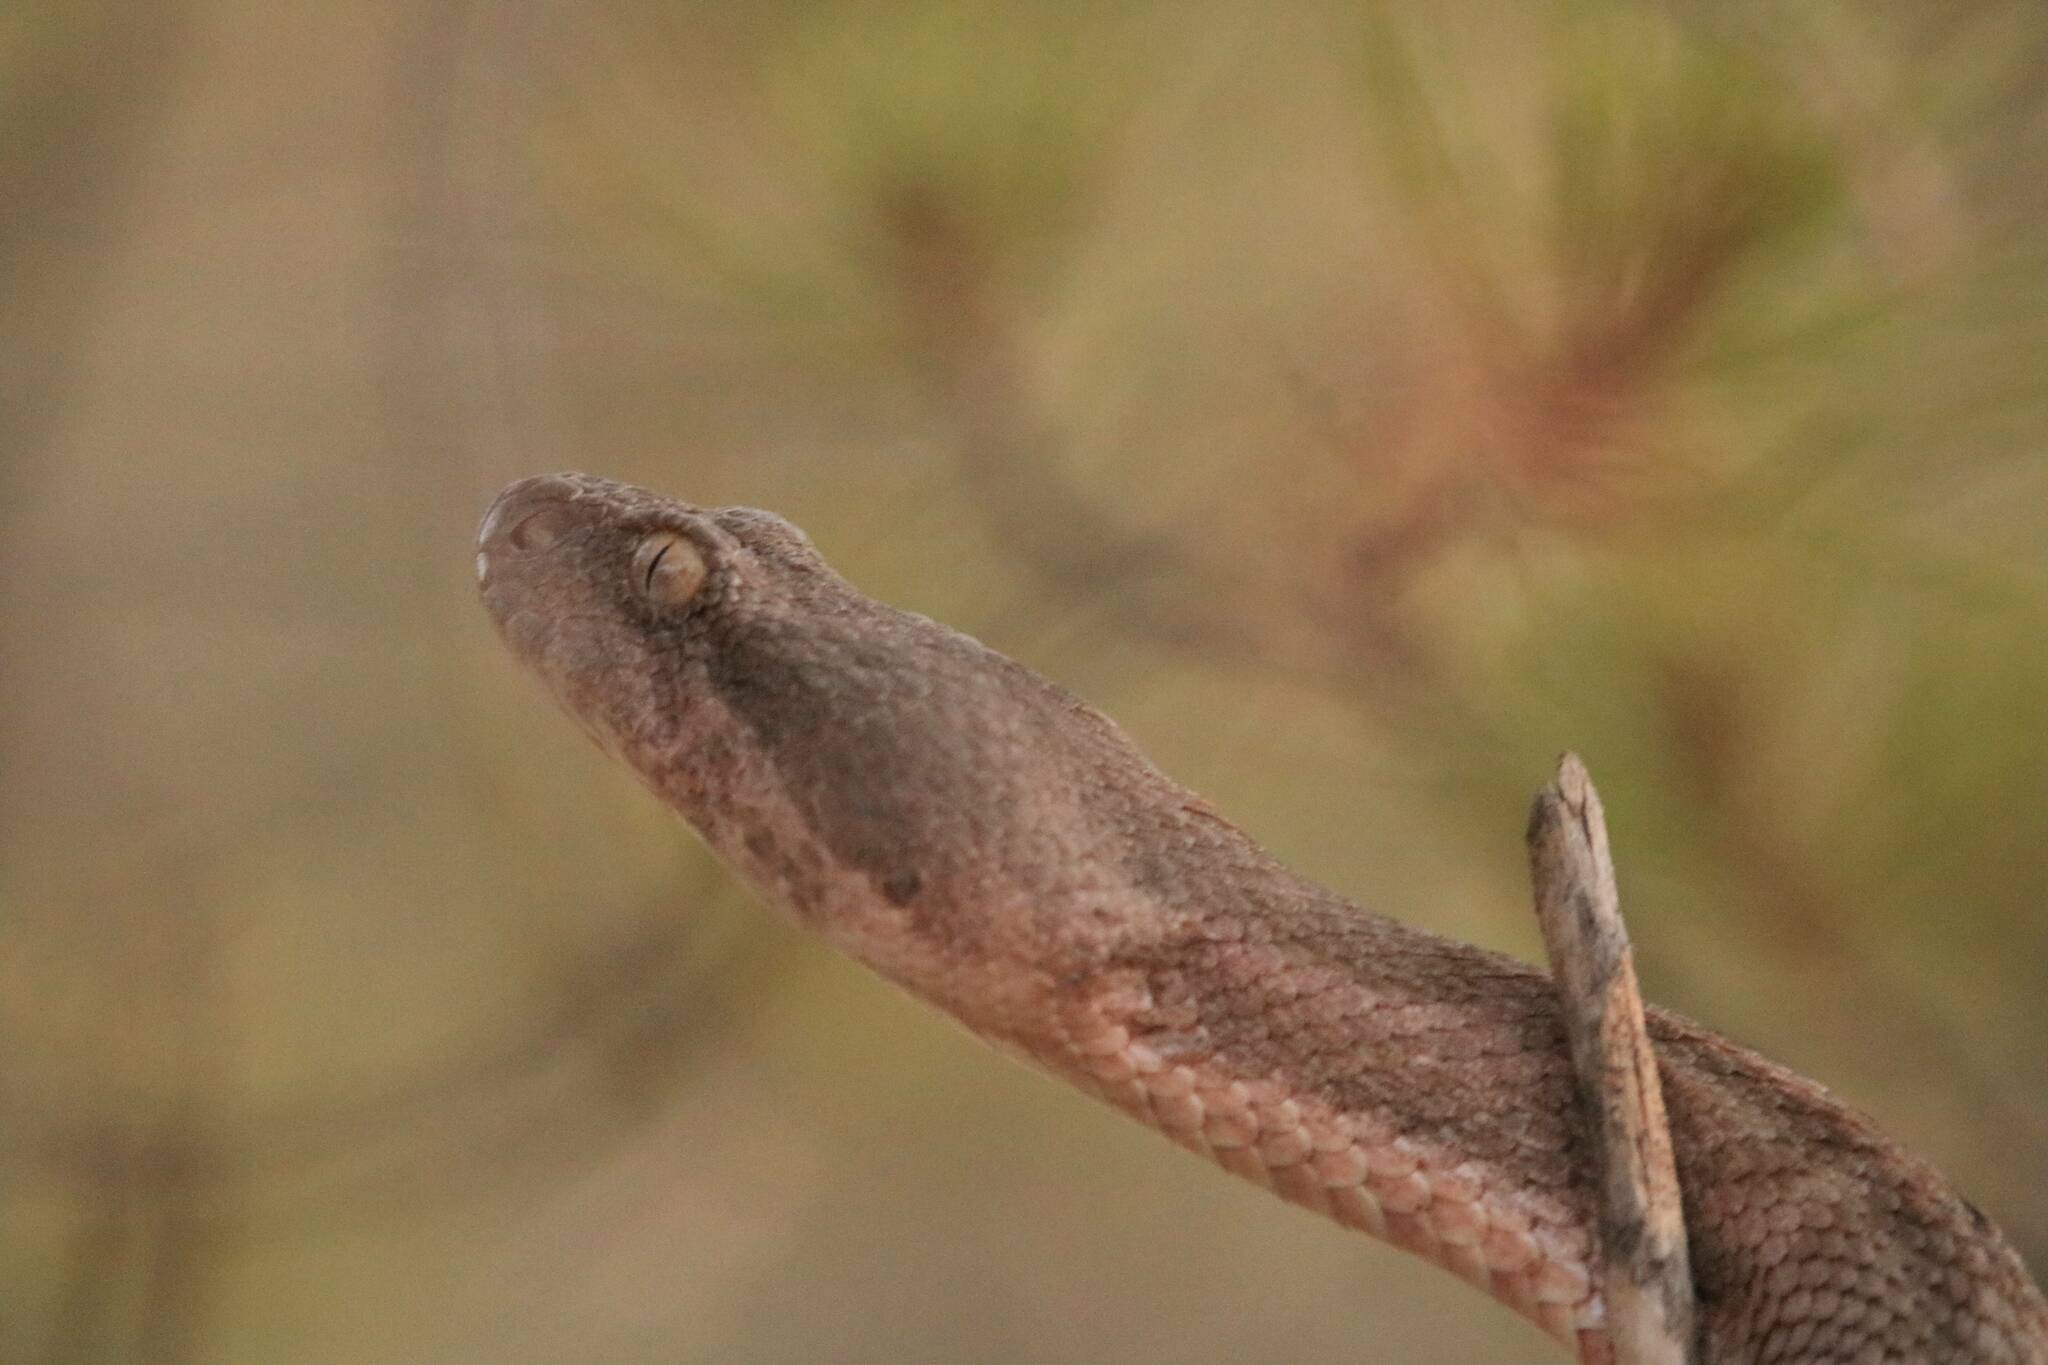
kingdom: Animalia
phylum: Chordata
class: Squamata
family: Viperidae
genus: Daboia
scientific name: Daboia mauritanica
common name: Moorish viper
